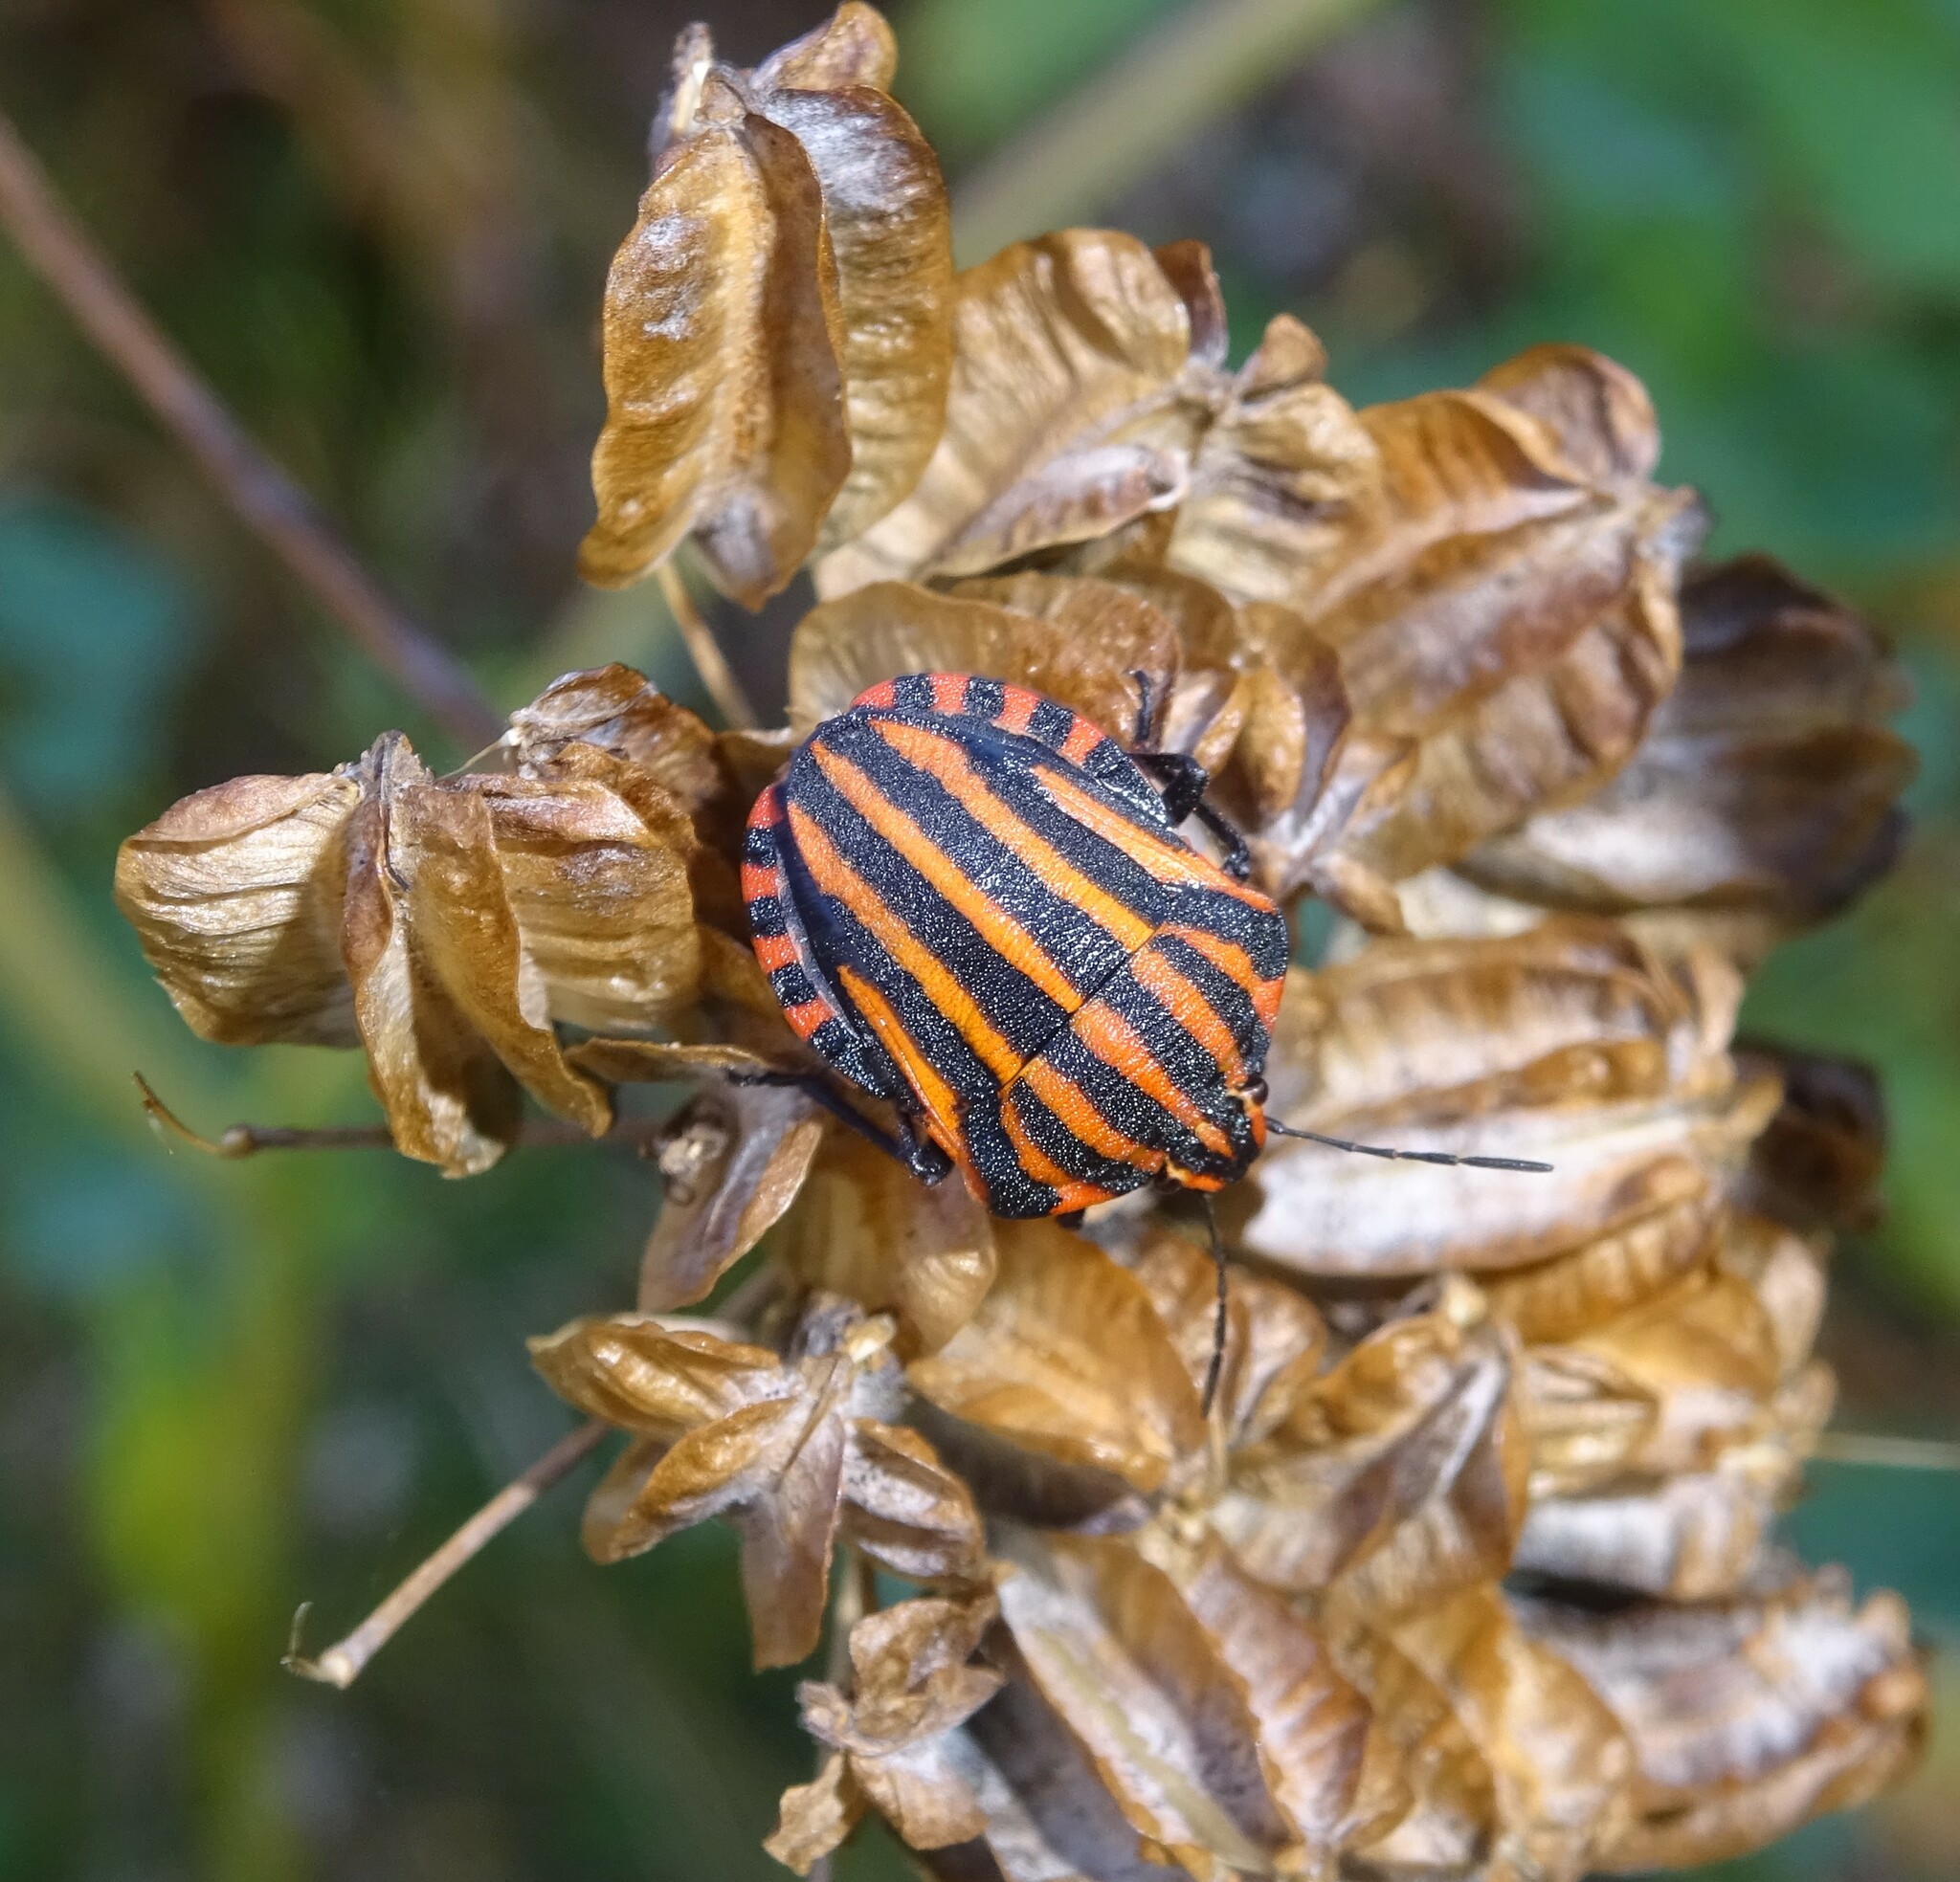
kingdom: Animalia
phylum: Arthropoda
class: Insecta
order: Hemiptera
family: Pentatomidae
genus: Graphosoma
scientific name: Graphosoma italicum
